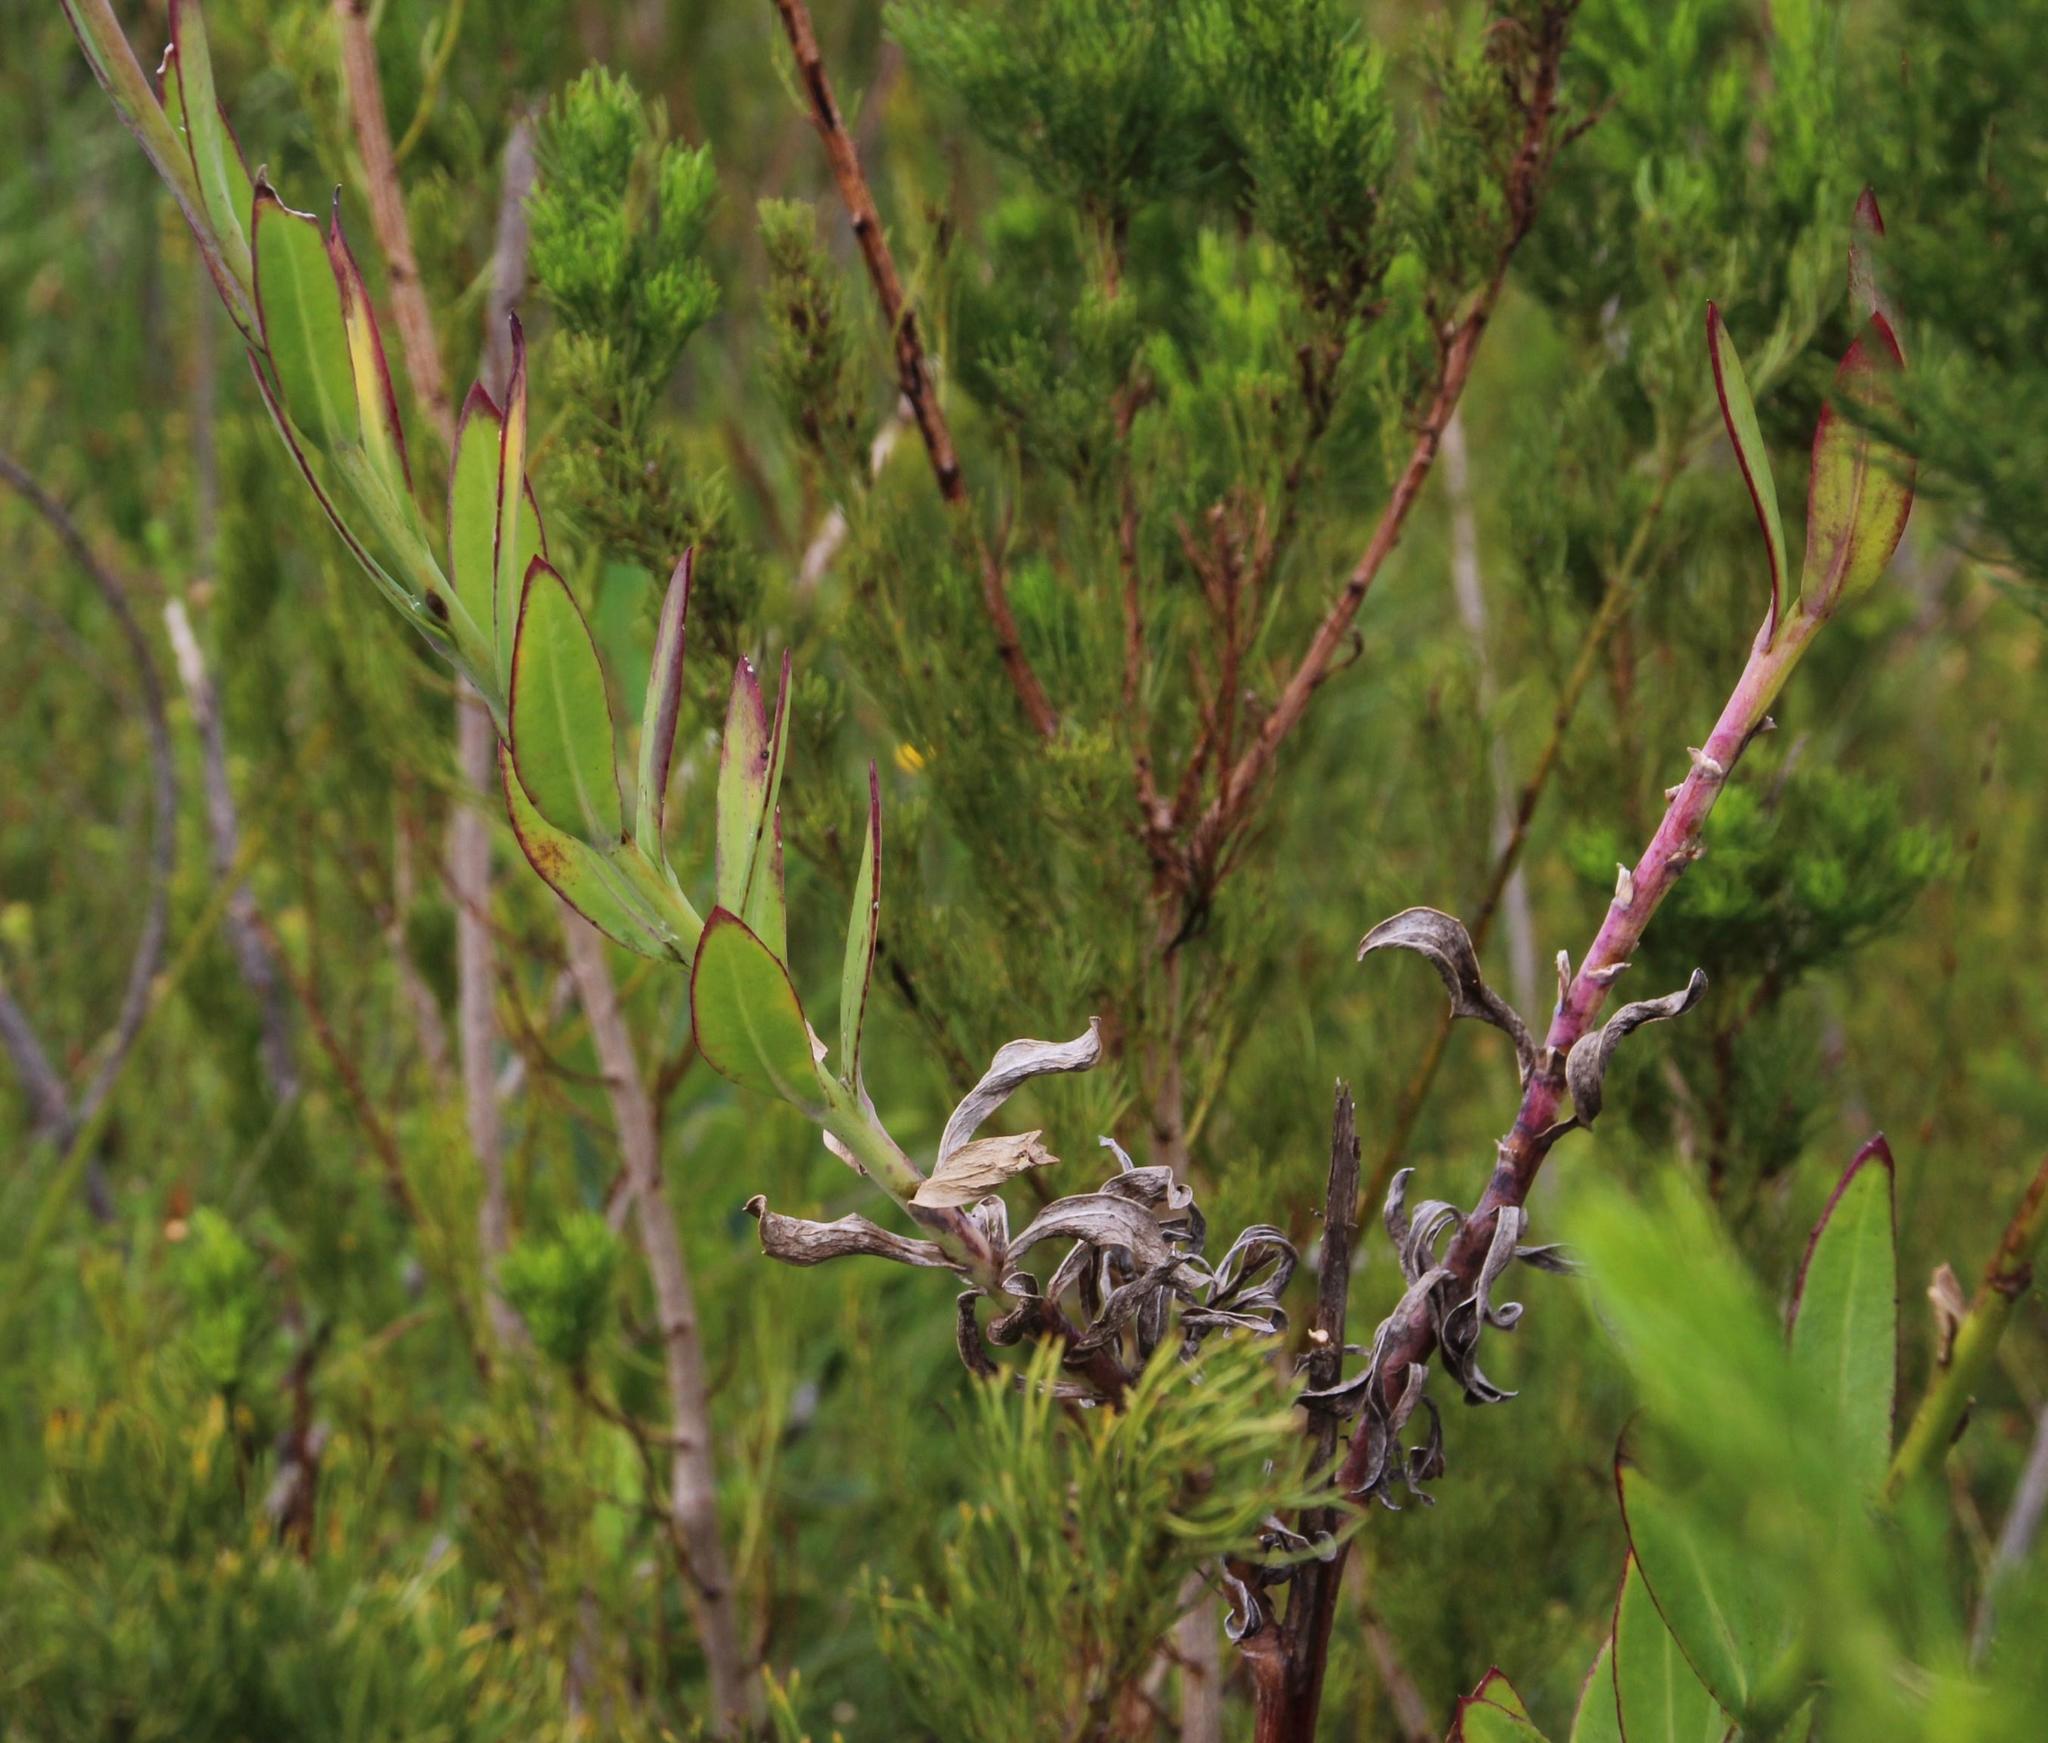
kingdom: Plantae
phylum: Tracheophyta
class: Magnoliopsida
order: Asterales
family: Asteraceae
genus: Othonna
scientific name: Othonna quinquedentata
